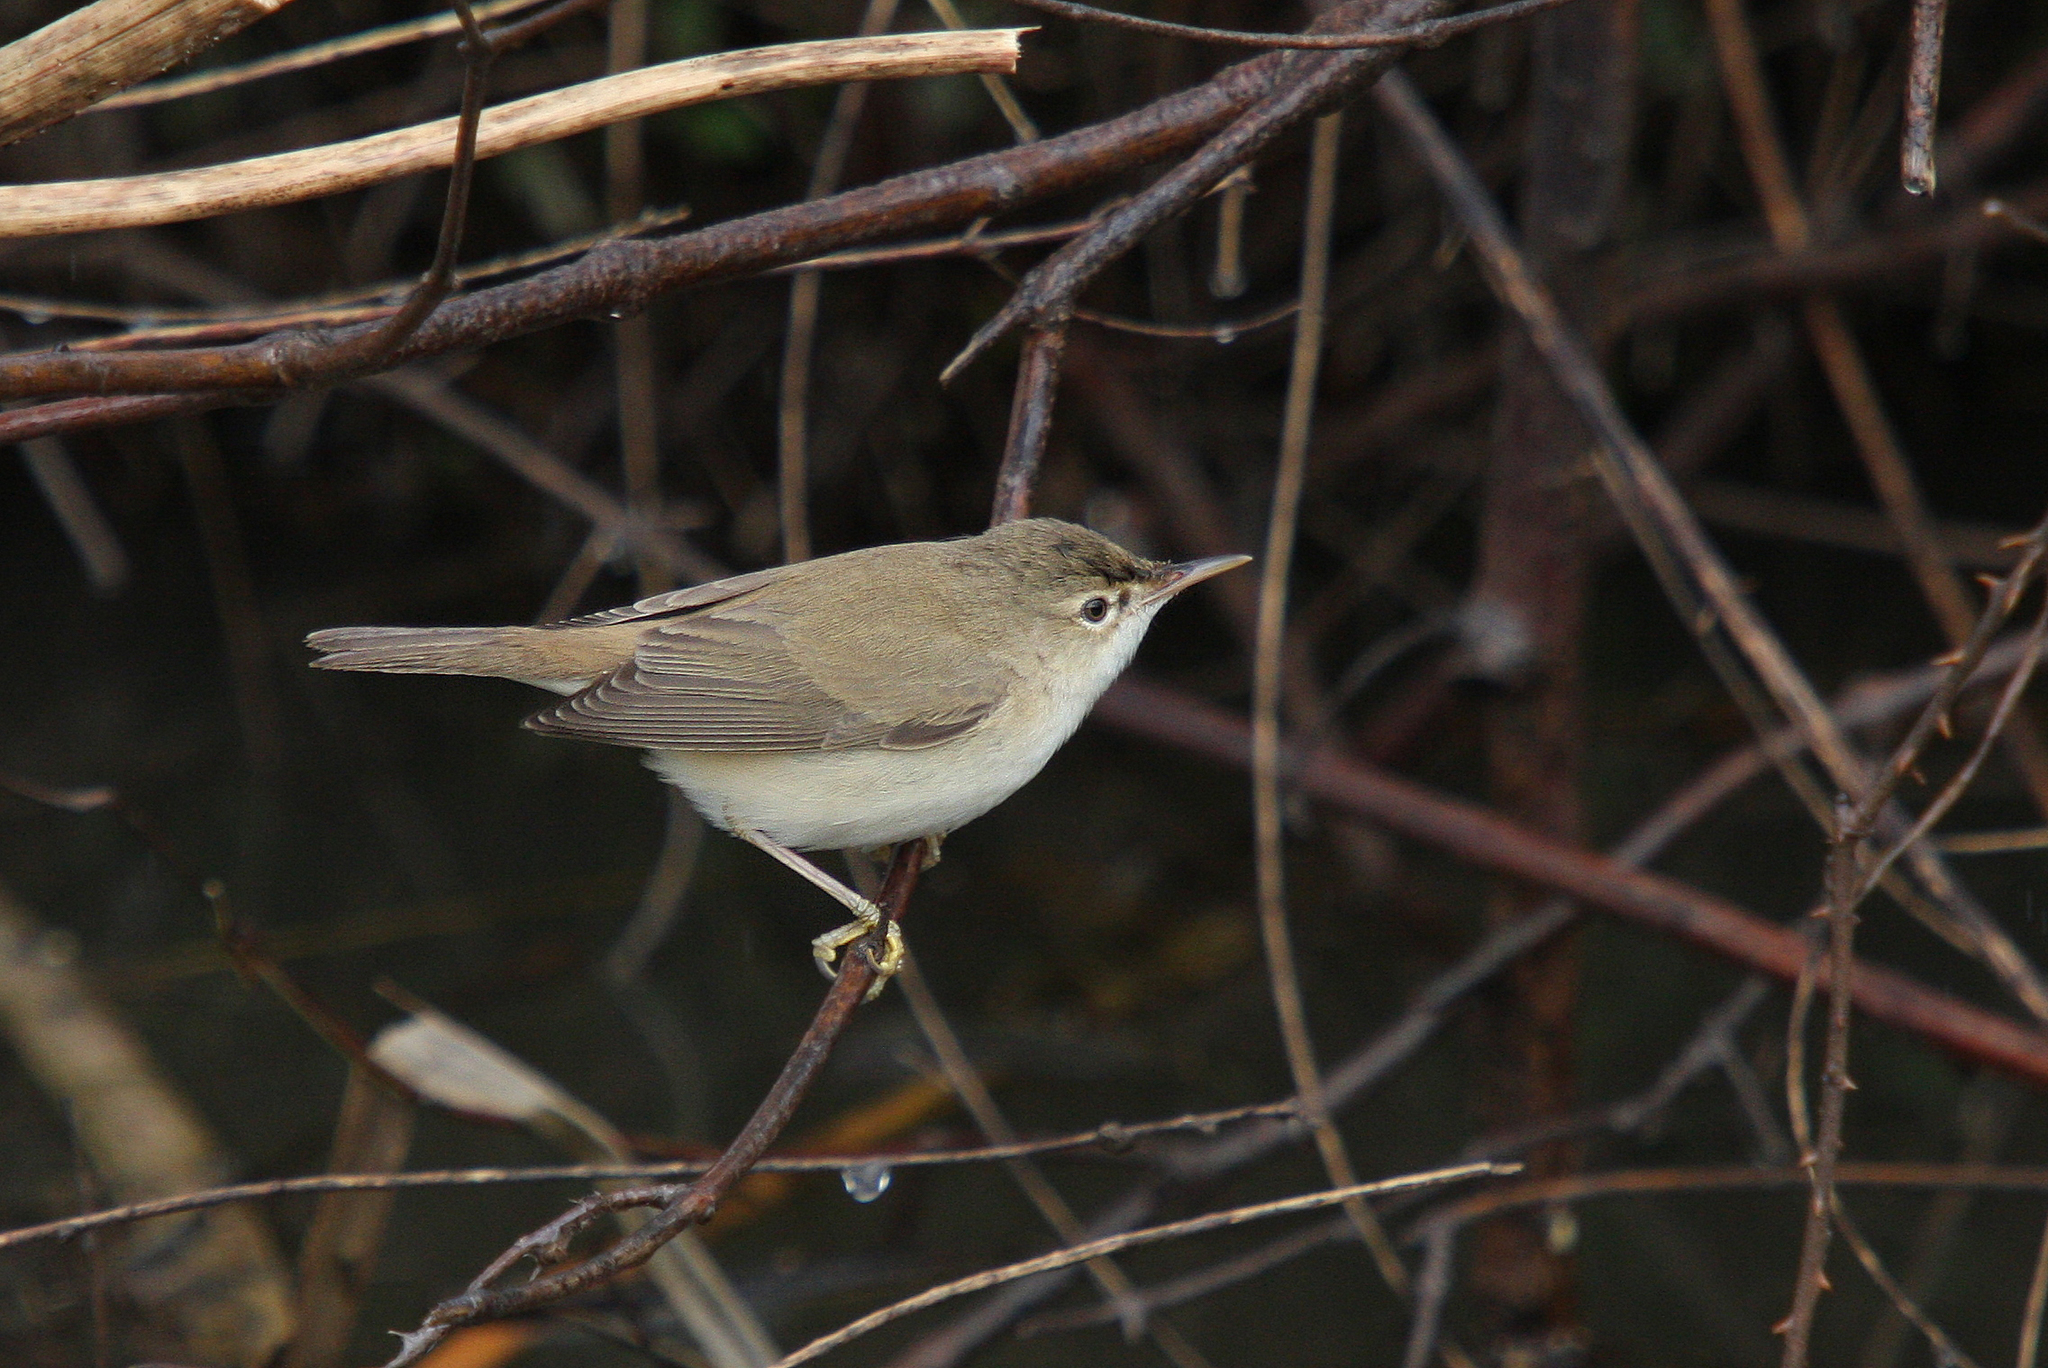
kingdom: Animalia
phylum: Chordata
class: Aves
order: Passeriformes
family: Acrocephalidae
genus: Acrocephalus
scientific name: Acrocephalus scirpaceus
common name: Eurasian reed warbler
